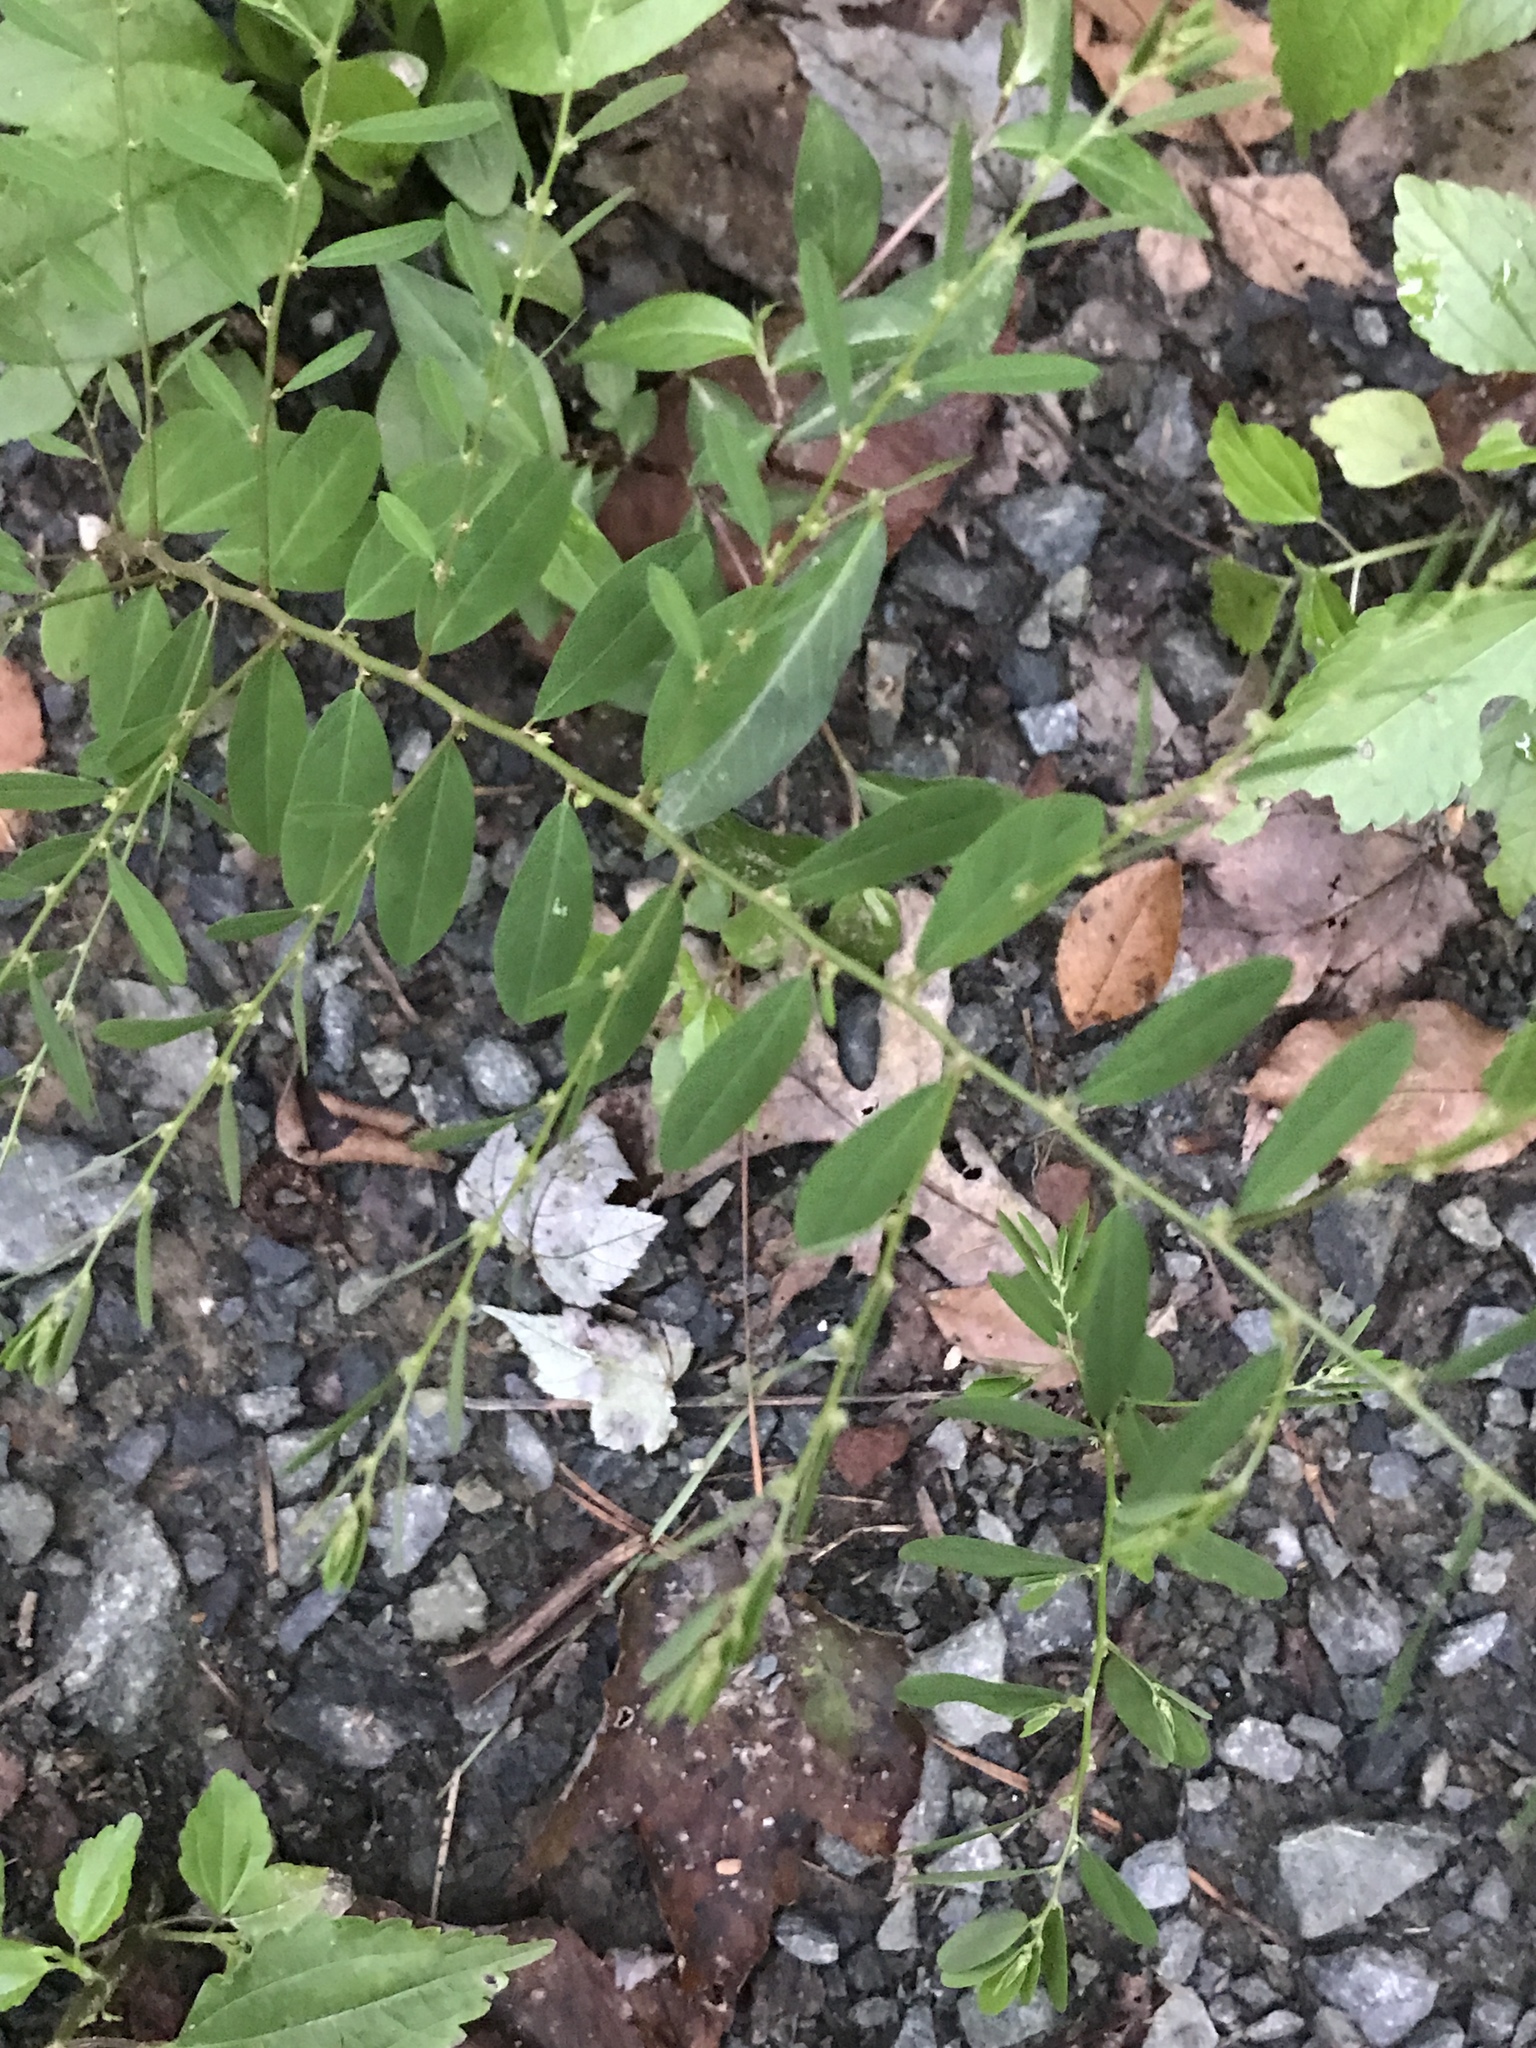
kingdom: Plantae
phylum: Tracheophyta
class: Magnoliopsida
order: Malpighiales
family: Phyllanthaceae
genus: Phyllanthus
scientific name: Phyllanthus caroliniensis
